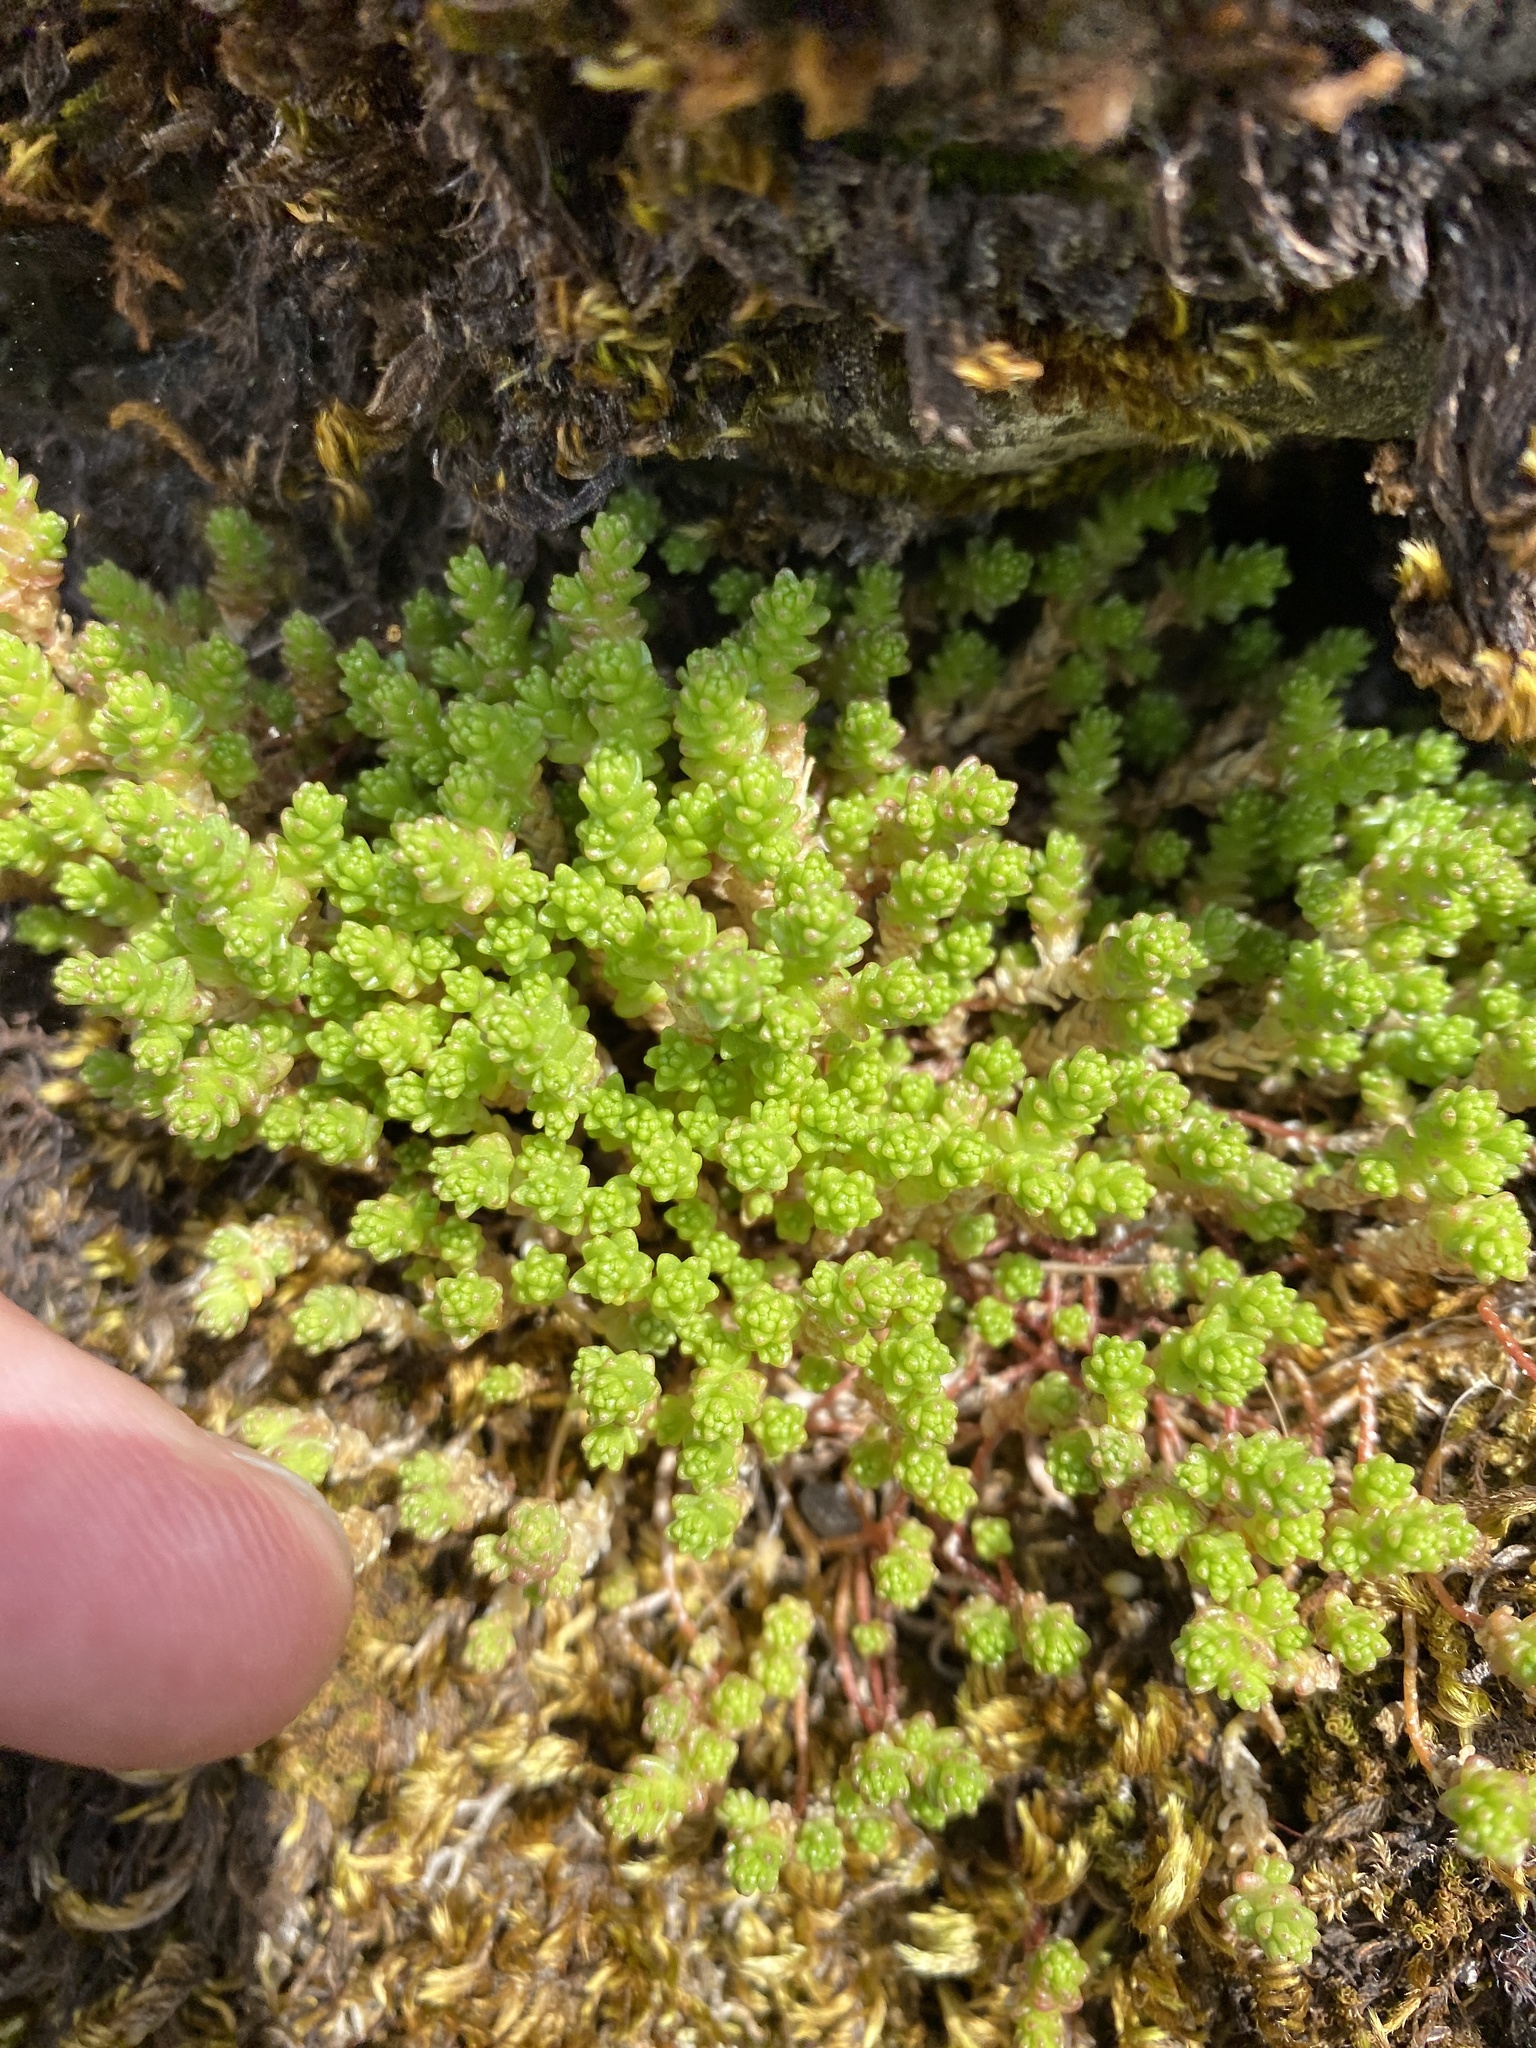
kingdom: Plantae
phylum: Tracheophyta
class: Magnoliopsida
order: Saxifragales
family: Crassulaceae
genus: Sedum
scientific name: Sedum acre
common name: Biting stonecrop
